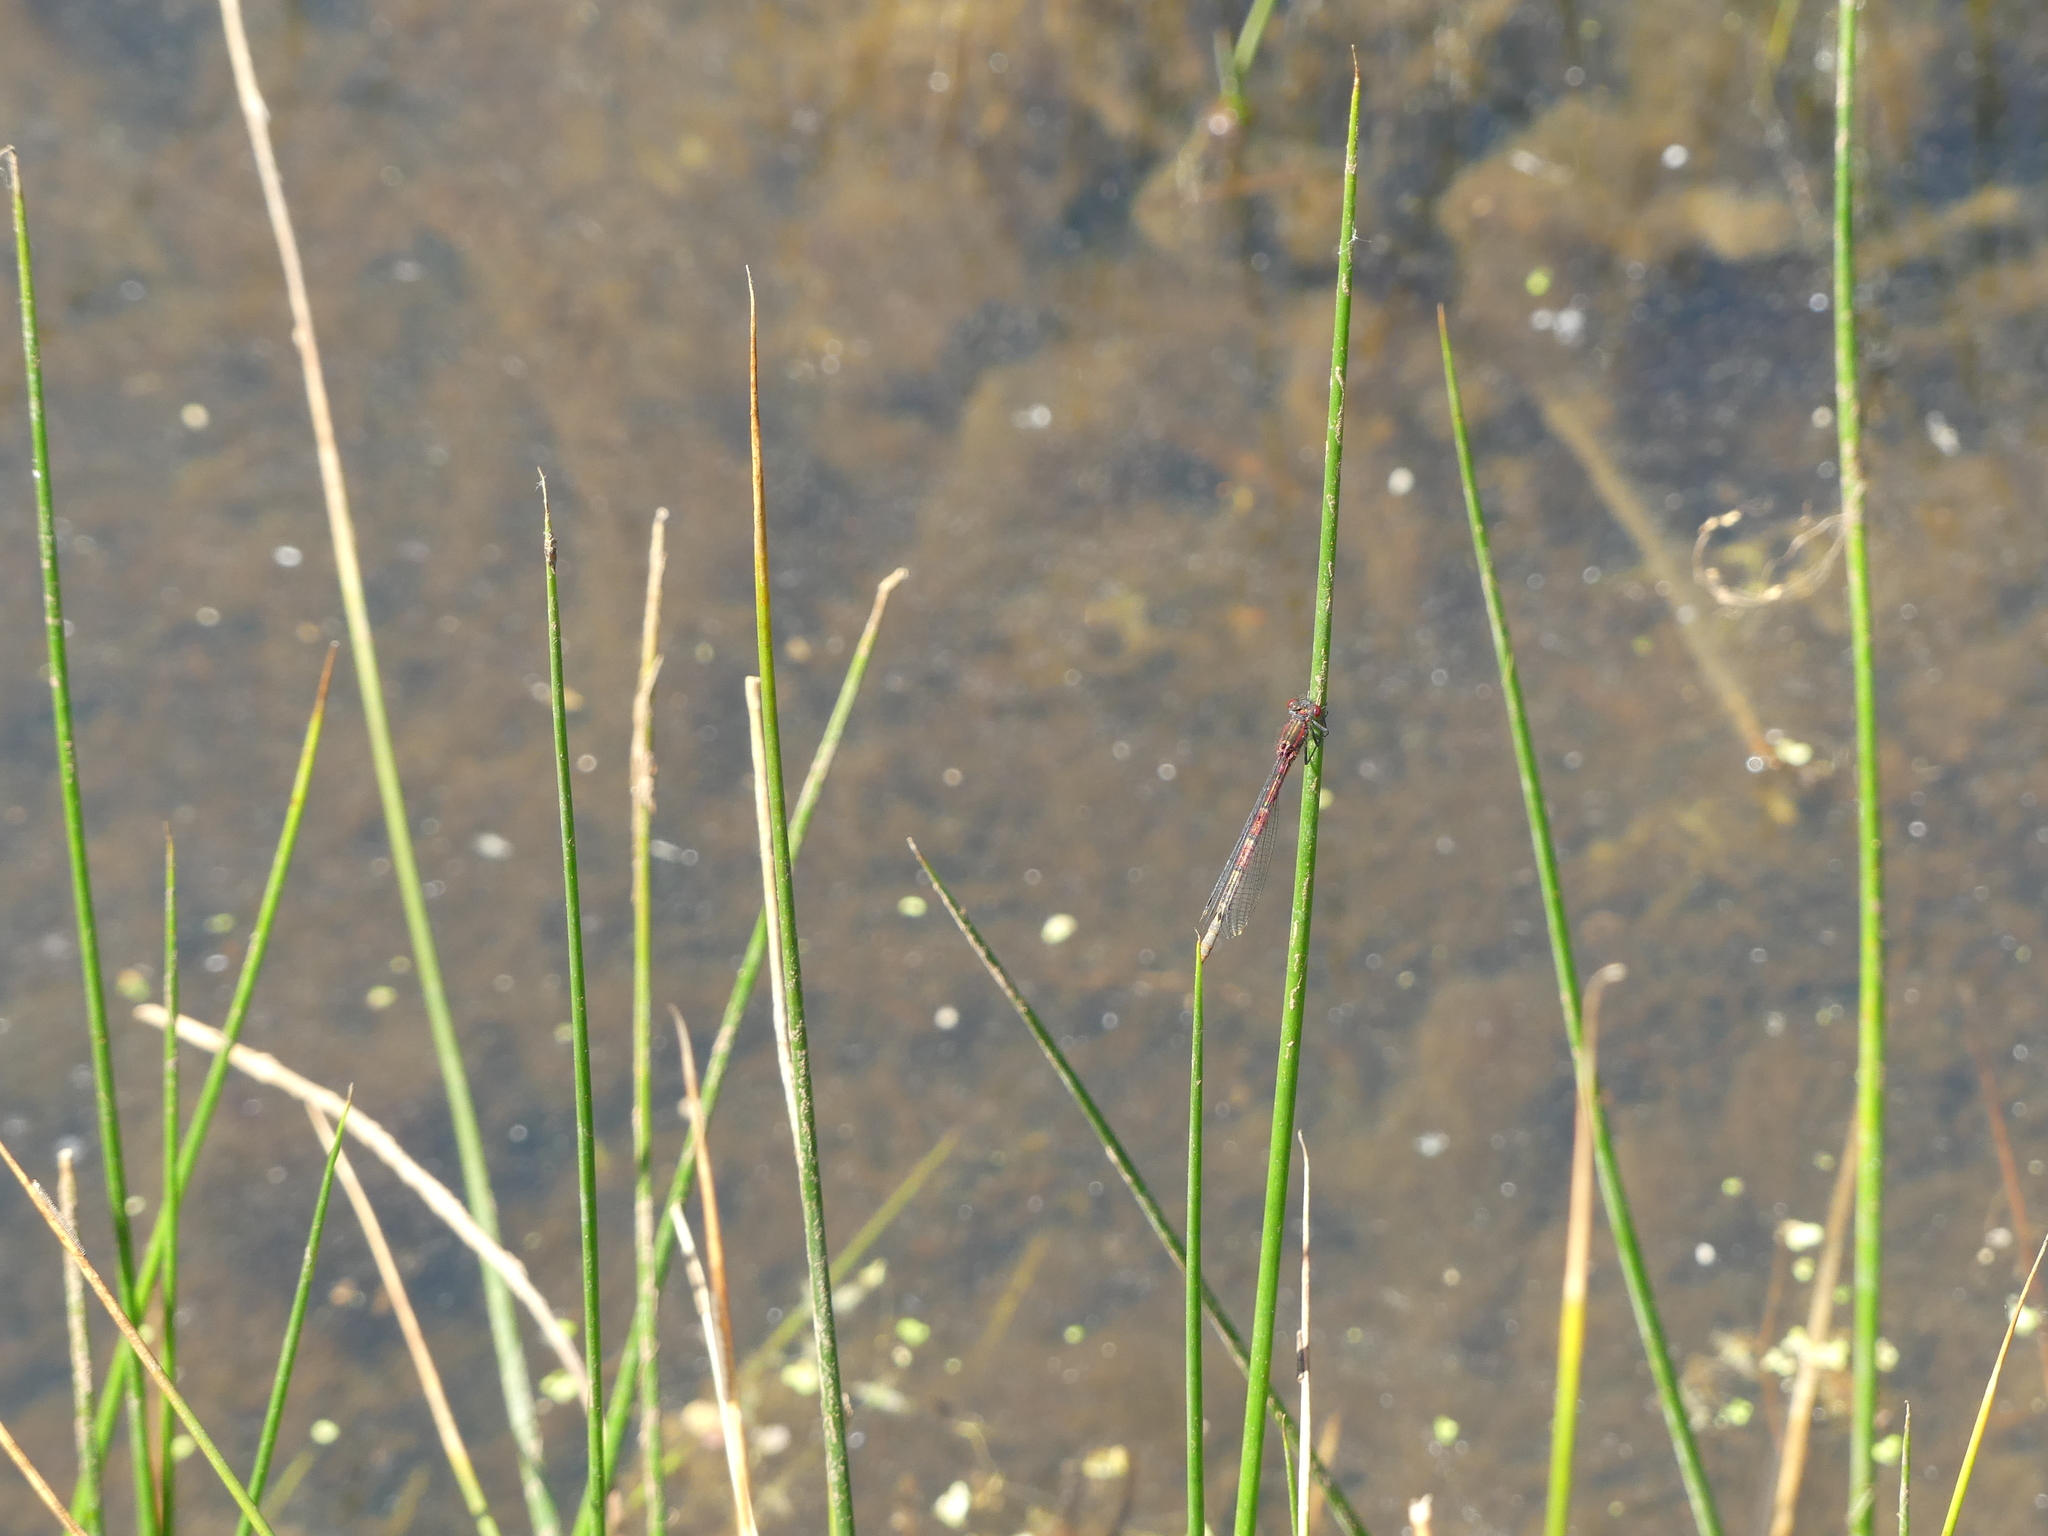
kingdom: Animalia
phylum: Arthropoda
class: Insecta
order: Odonata
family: Coenagrionidae
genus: Pyrrhosoma
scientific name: Pyrrhosoma nymphula
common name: Large red damsel
